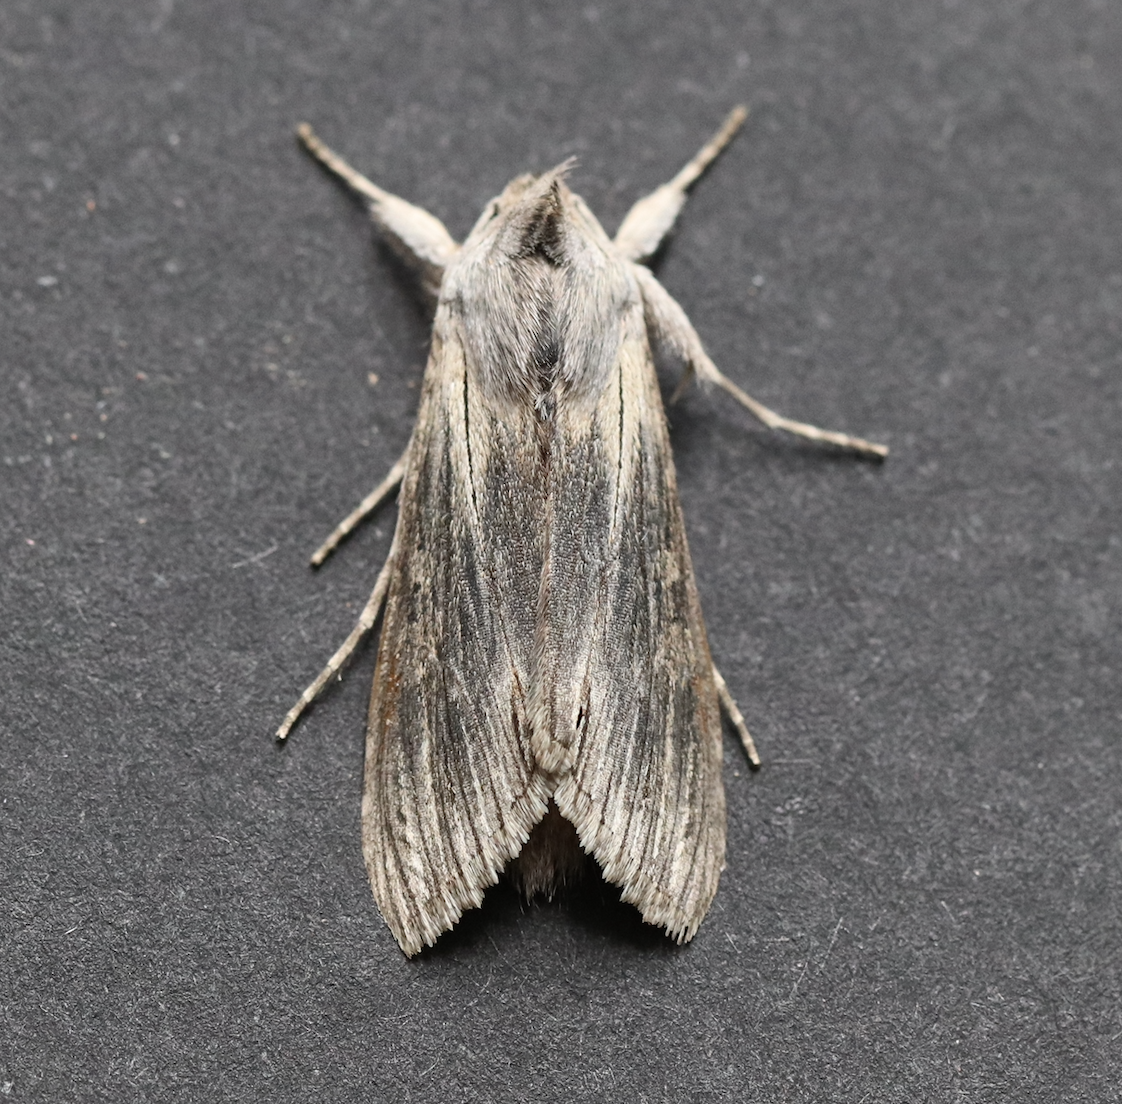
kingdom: Animalia
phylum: Arthropoda
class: Insecta
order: Lepidoptera
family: Noctuidae
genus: Cucullia
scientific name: Cucullia chamomillae
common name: Chamomile shark
